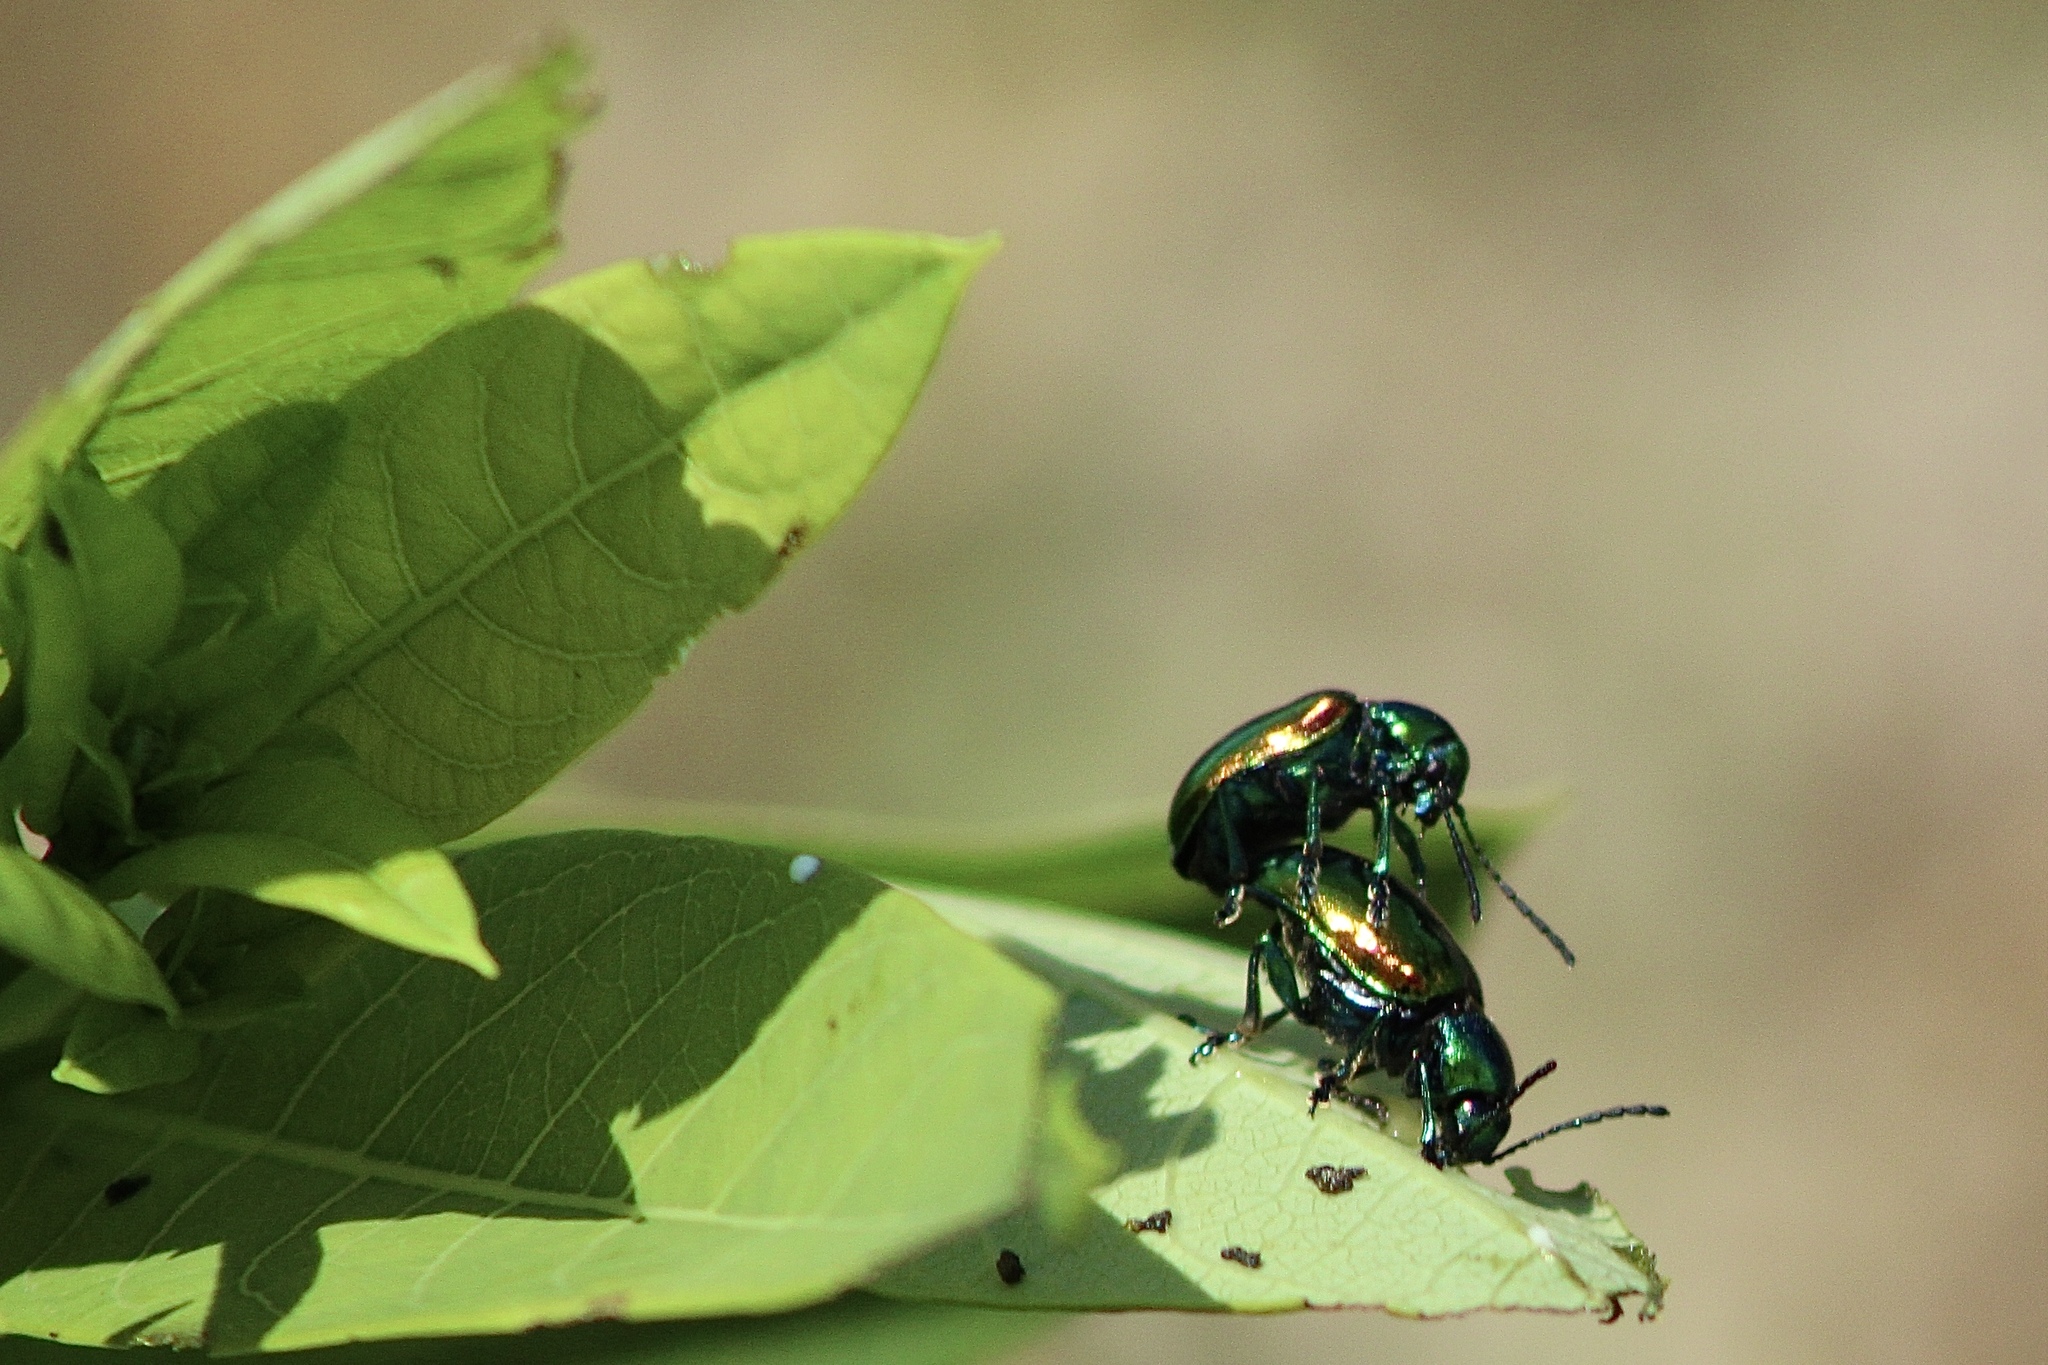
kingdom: Animalia
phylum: Arthropoda
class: Insecta
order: Coleoptera
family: Chrysomelidae
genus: Chrysochus
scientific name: Chrysochus auratus
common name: Dogbane leaf beetle
